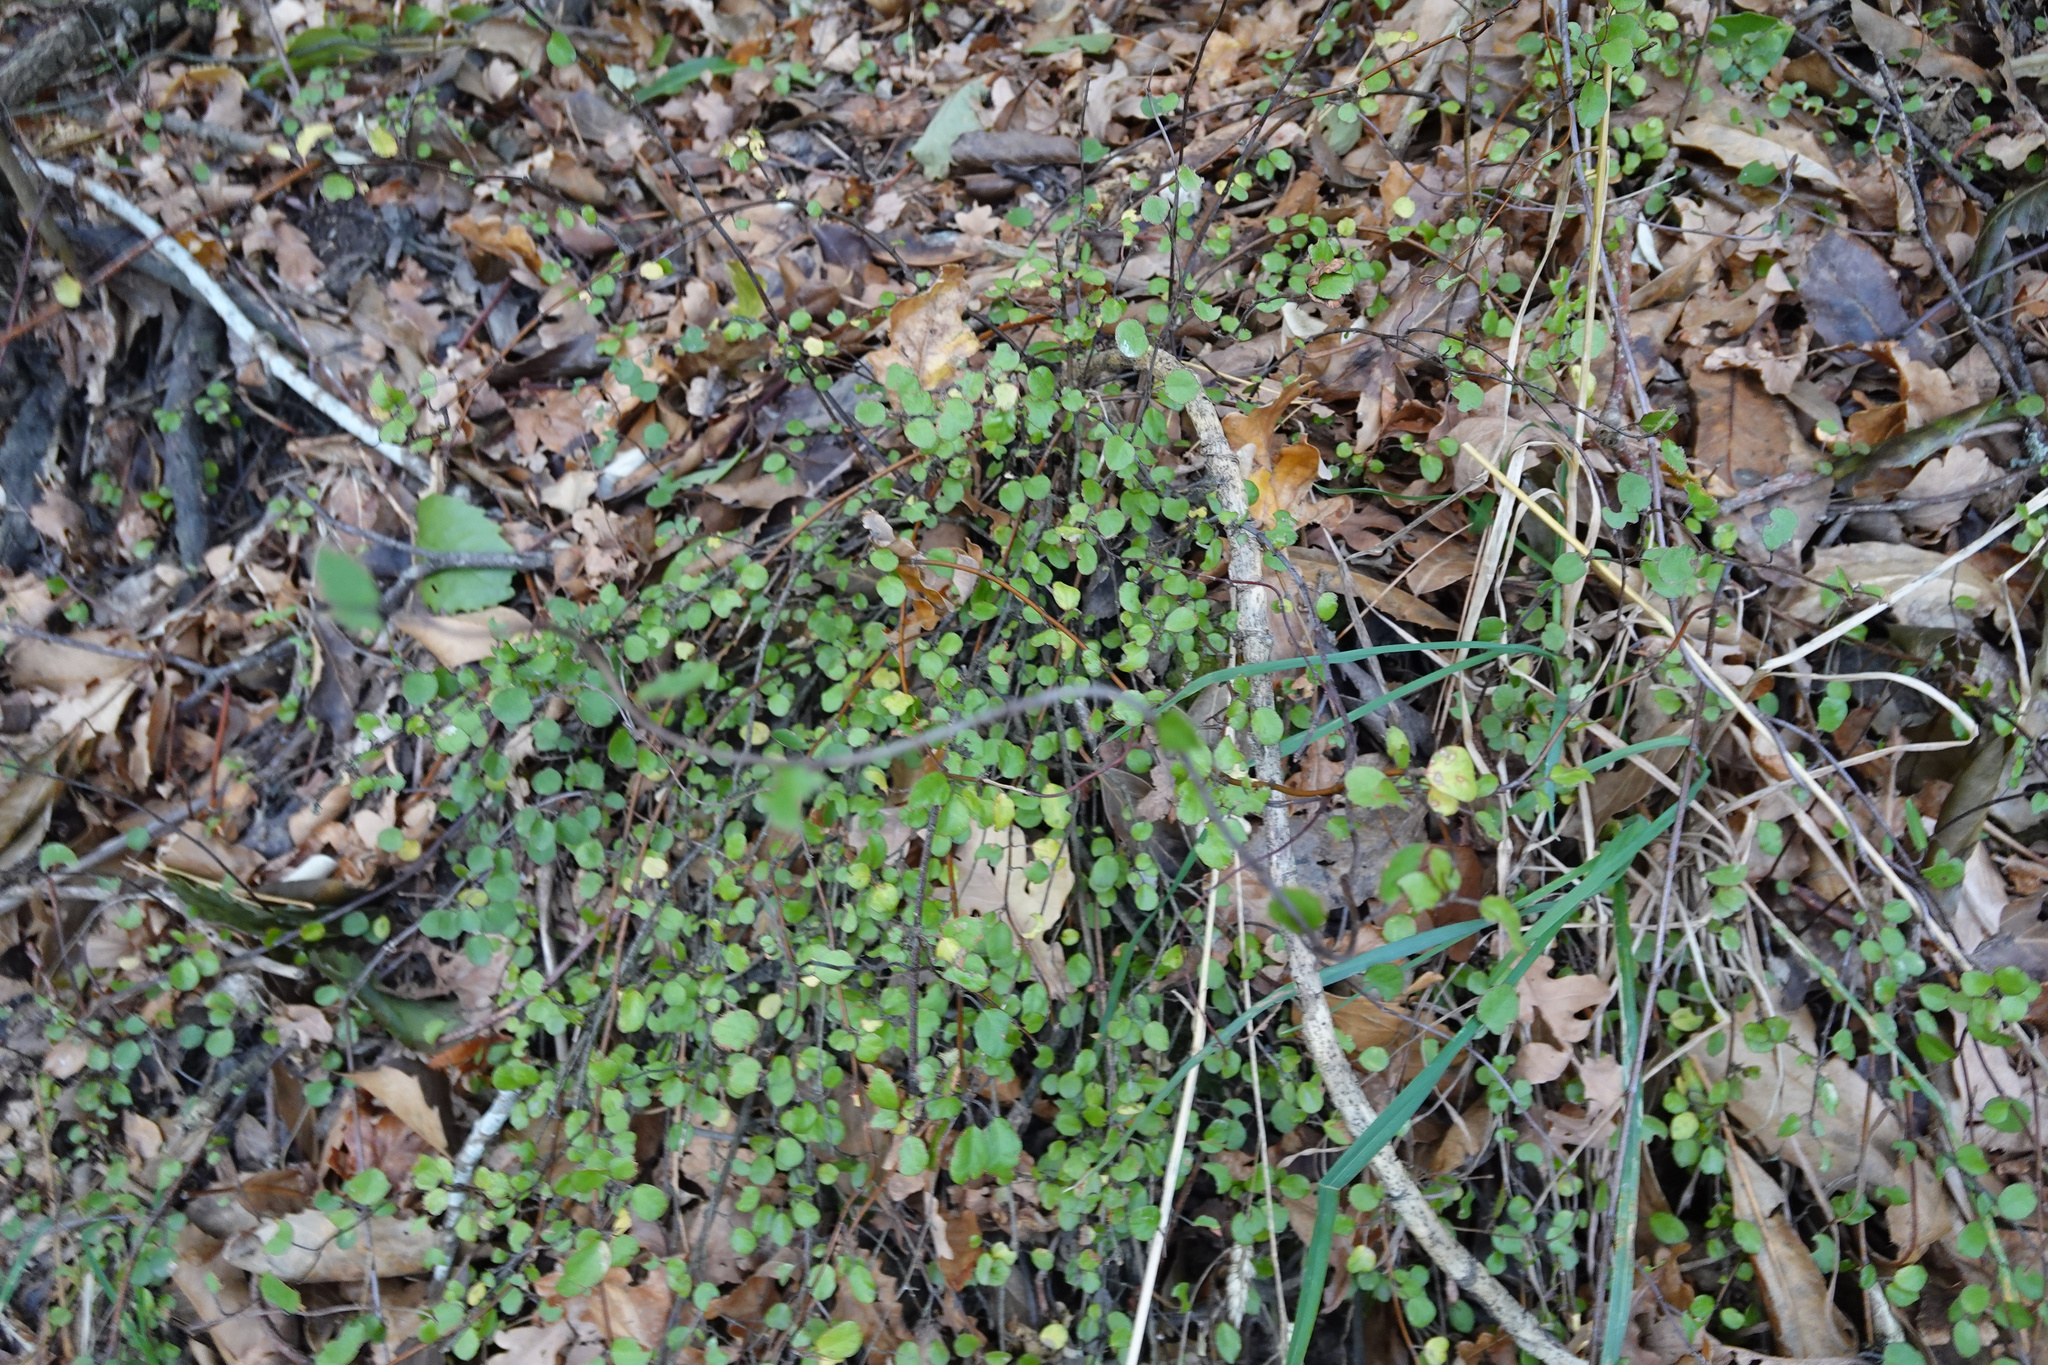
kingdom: Plantae
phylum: Tracheophyta
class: Magnoliopsida
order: Caryophyllales
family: Polygonaceae
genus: Muehlenbeckia
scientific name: Muehlenbeckia complexa
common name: Wireplant
